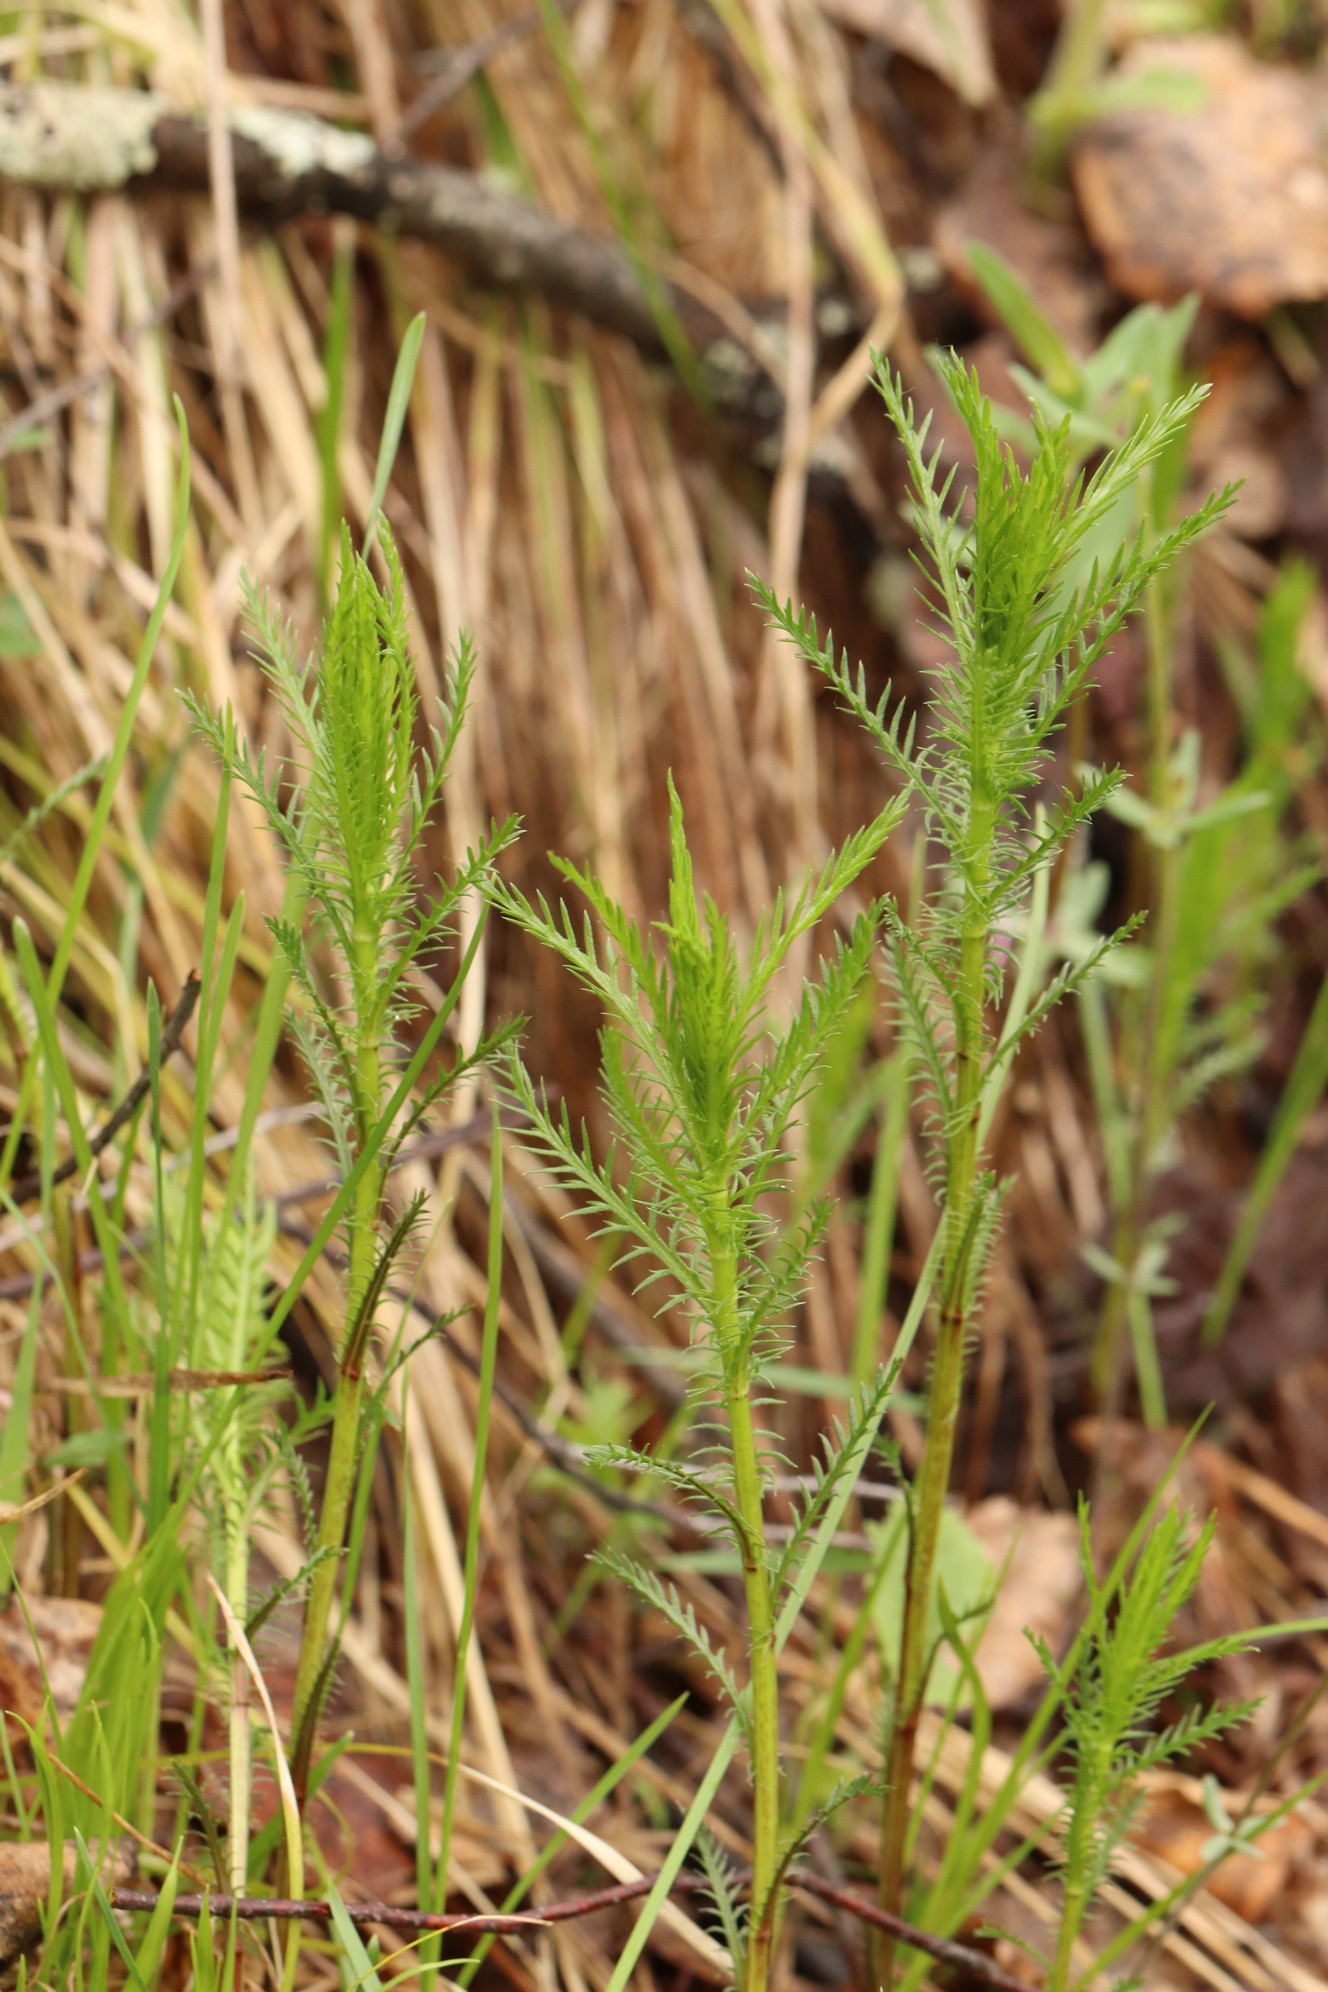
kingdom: Plantae
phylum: Tracheophyta
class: Magnoliopsida
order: Asterales
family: Asteraceae
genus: Achillea
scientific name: Achillea impatiens
